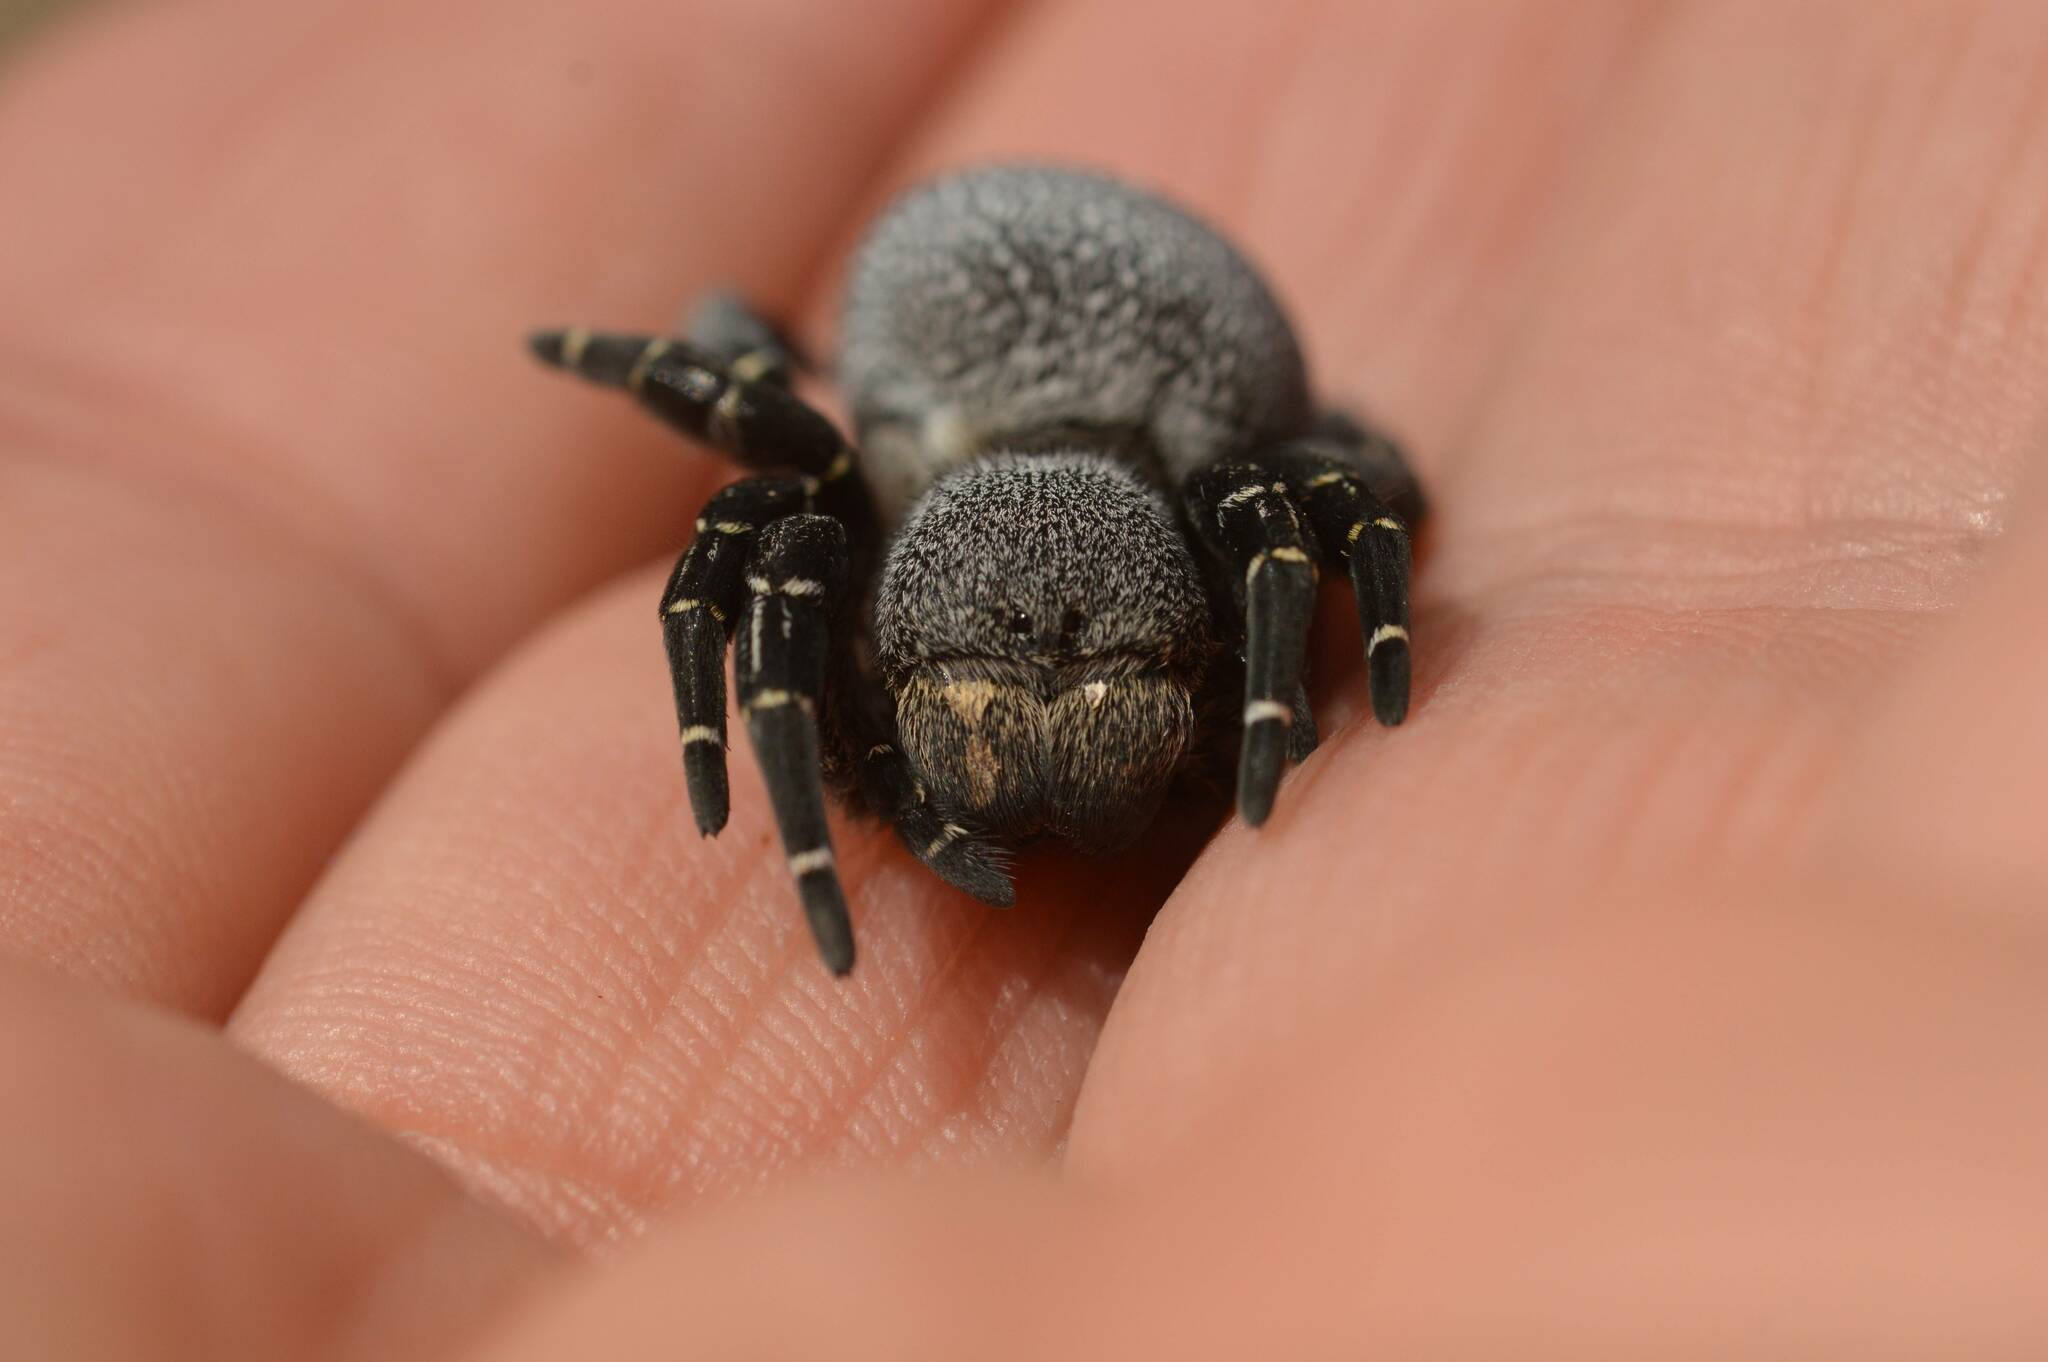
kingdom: Animalia
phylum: Arthropoda
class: Arachnida
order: Araneae
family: Eresidae
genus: Eresus
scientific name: Eresus kollari
